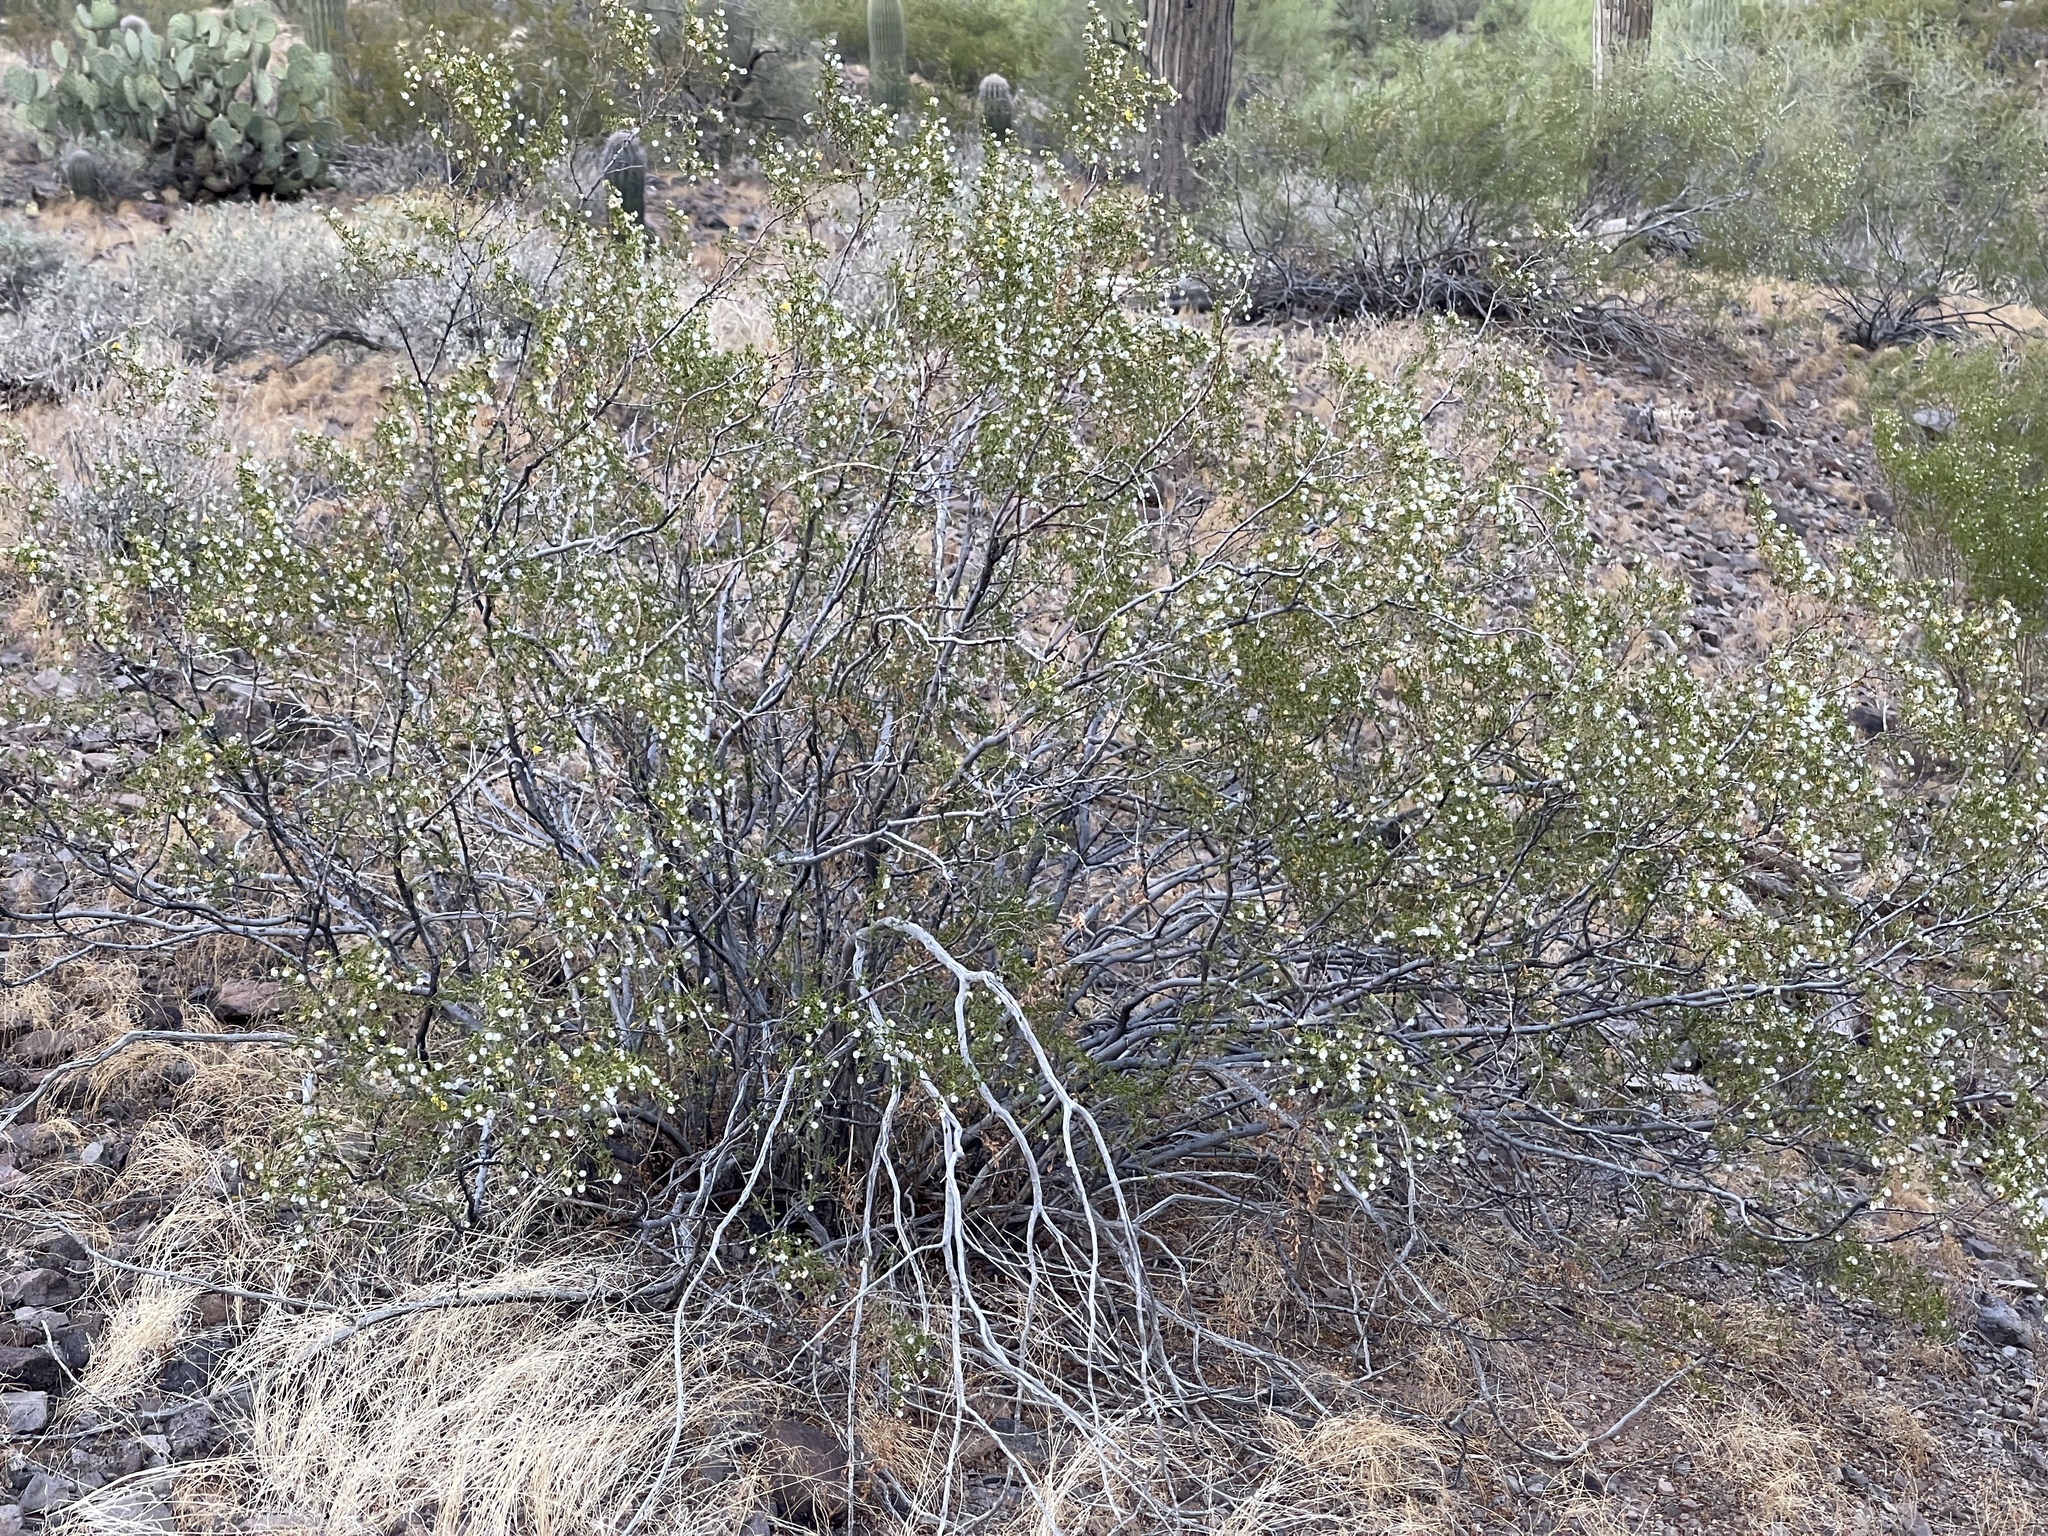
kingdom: Plantae
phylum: Tracheophyta
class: Magnoliopsida
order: Zygophyllales
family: Zygophyllaceae
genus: Larrea
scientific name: Larrea tridentata
